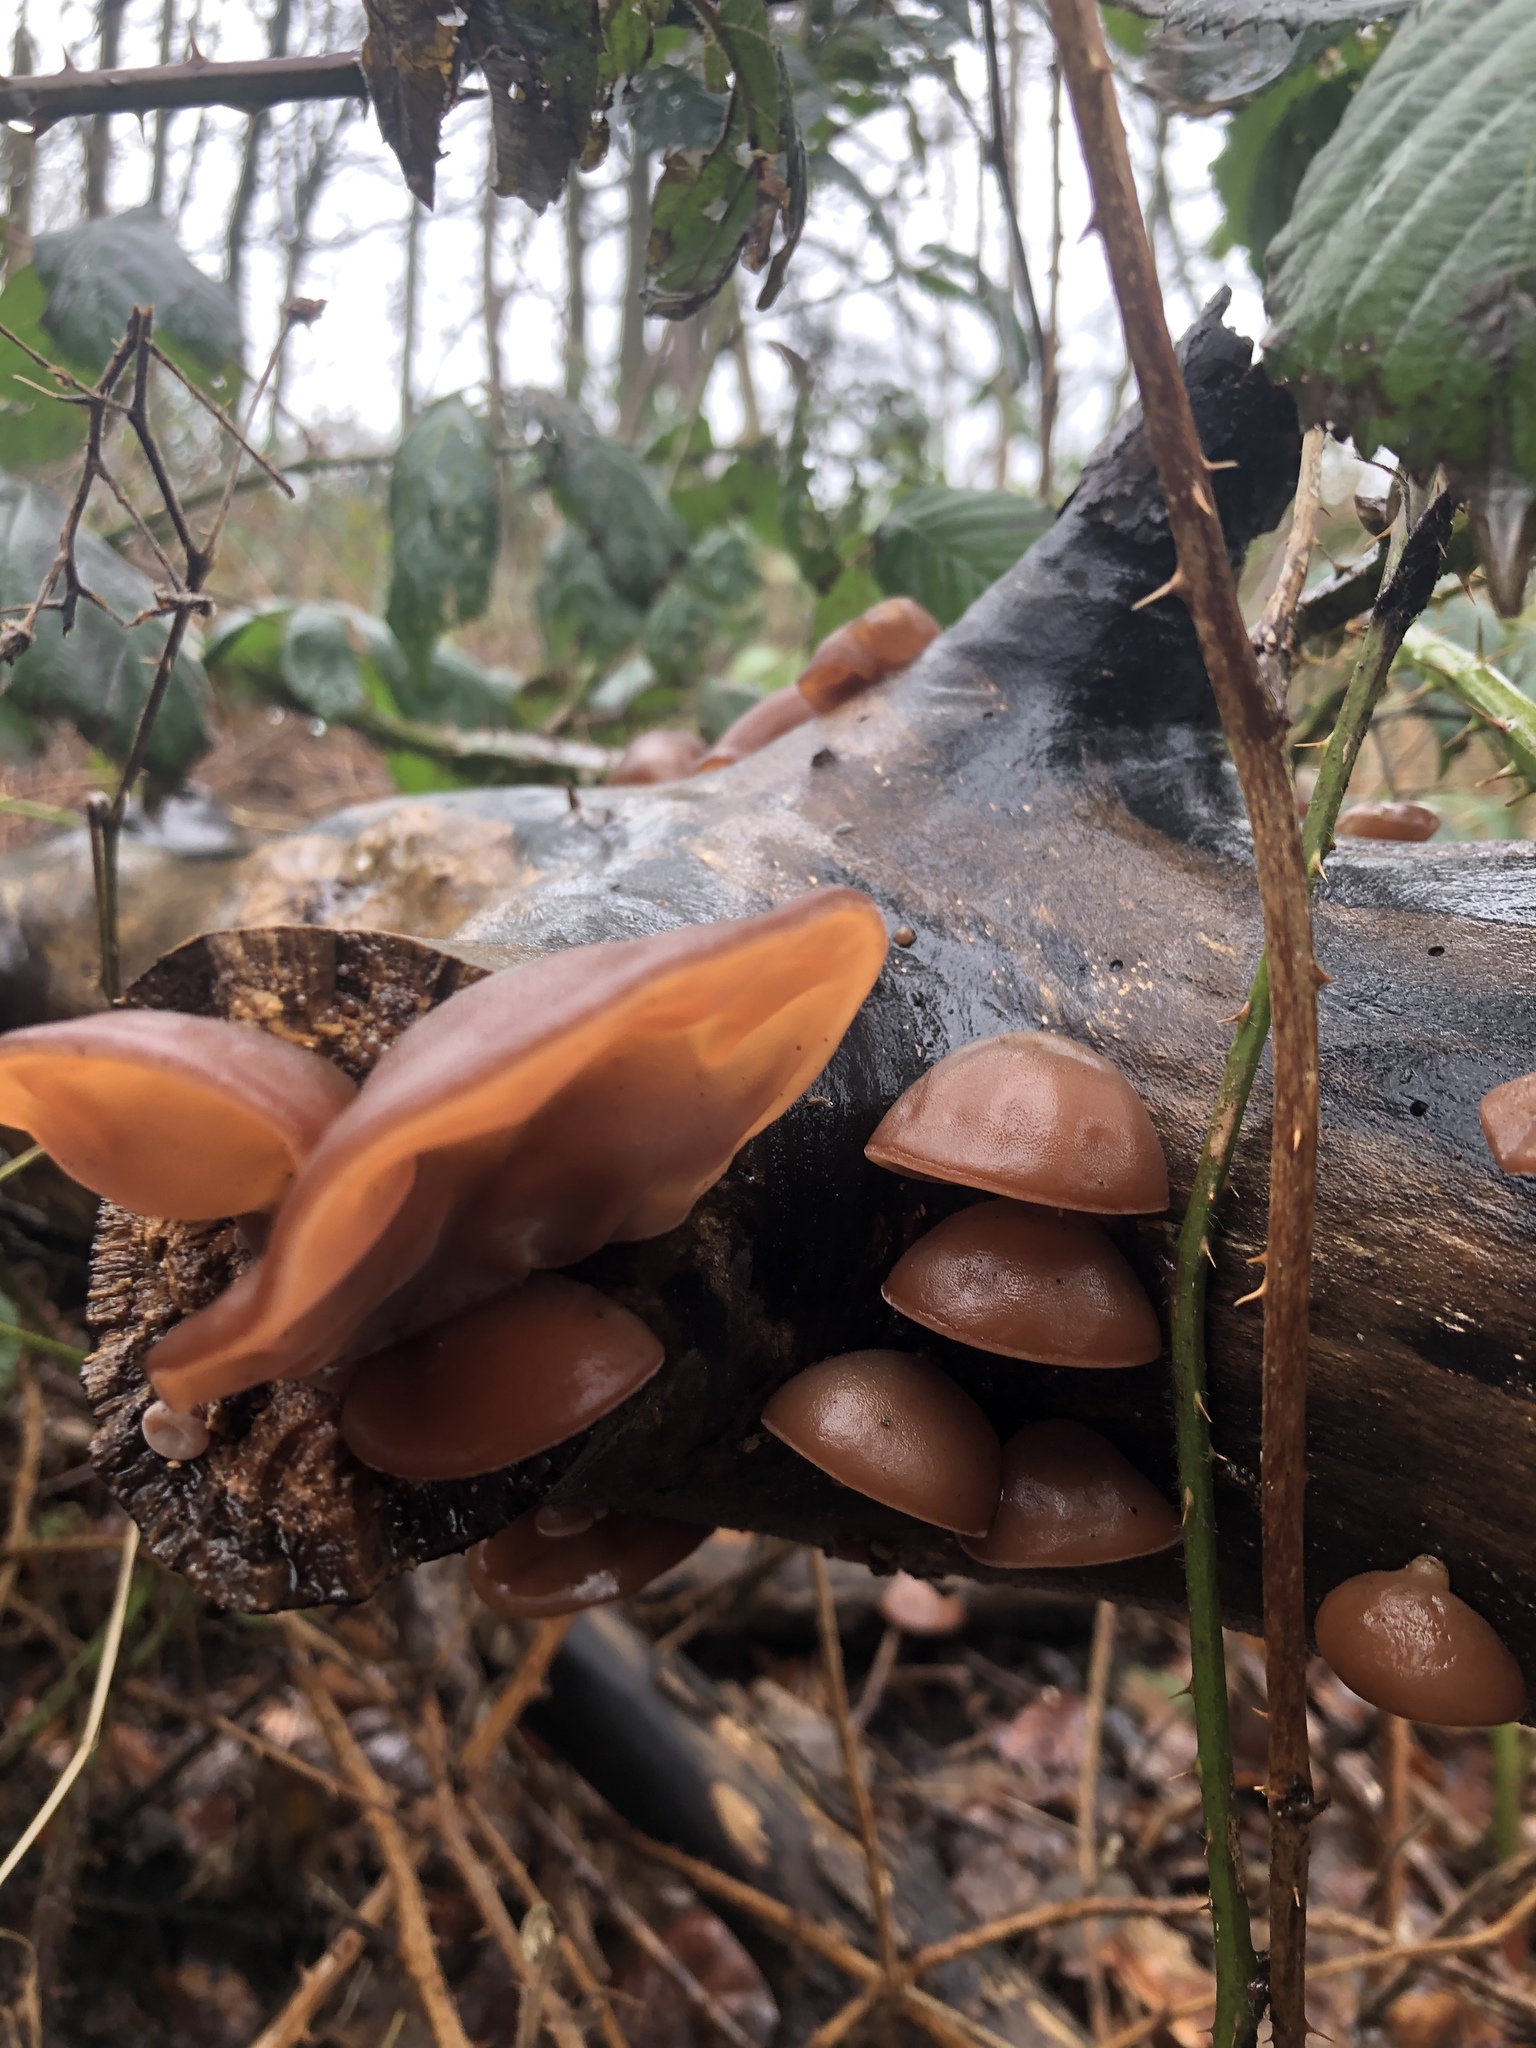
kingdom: Fungi
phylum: Basidiomycota
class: Agaricomycetes
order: Auriculariales
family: Auriculariaceae
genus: Auricularia
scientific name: Auricularia auricula-judae
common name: Jelly ear
